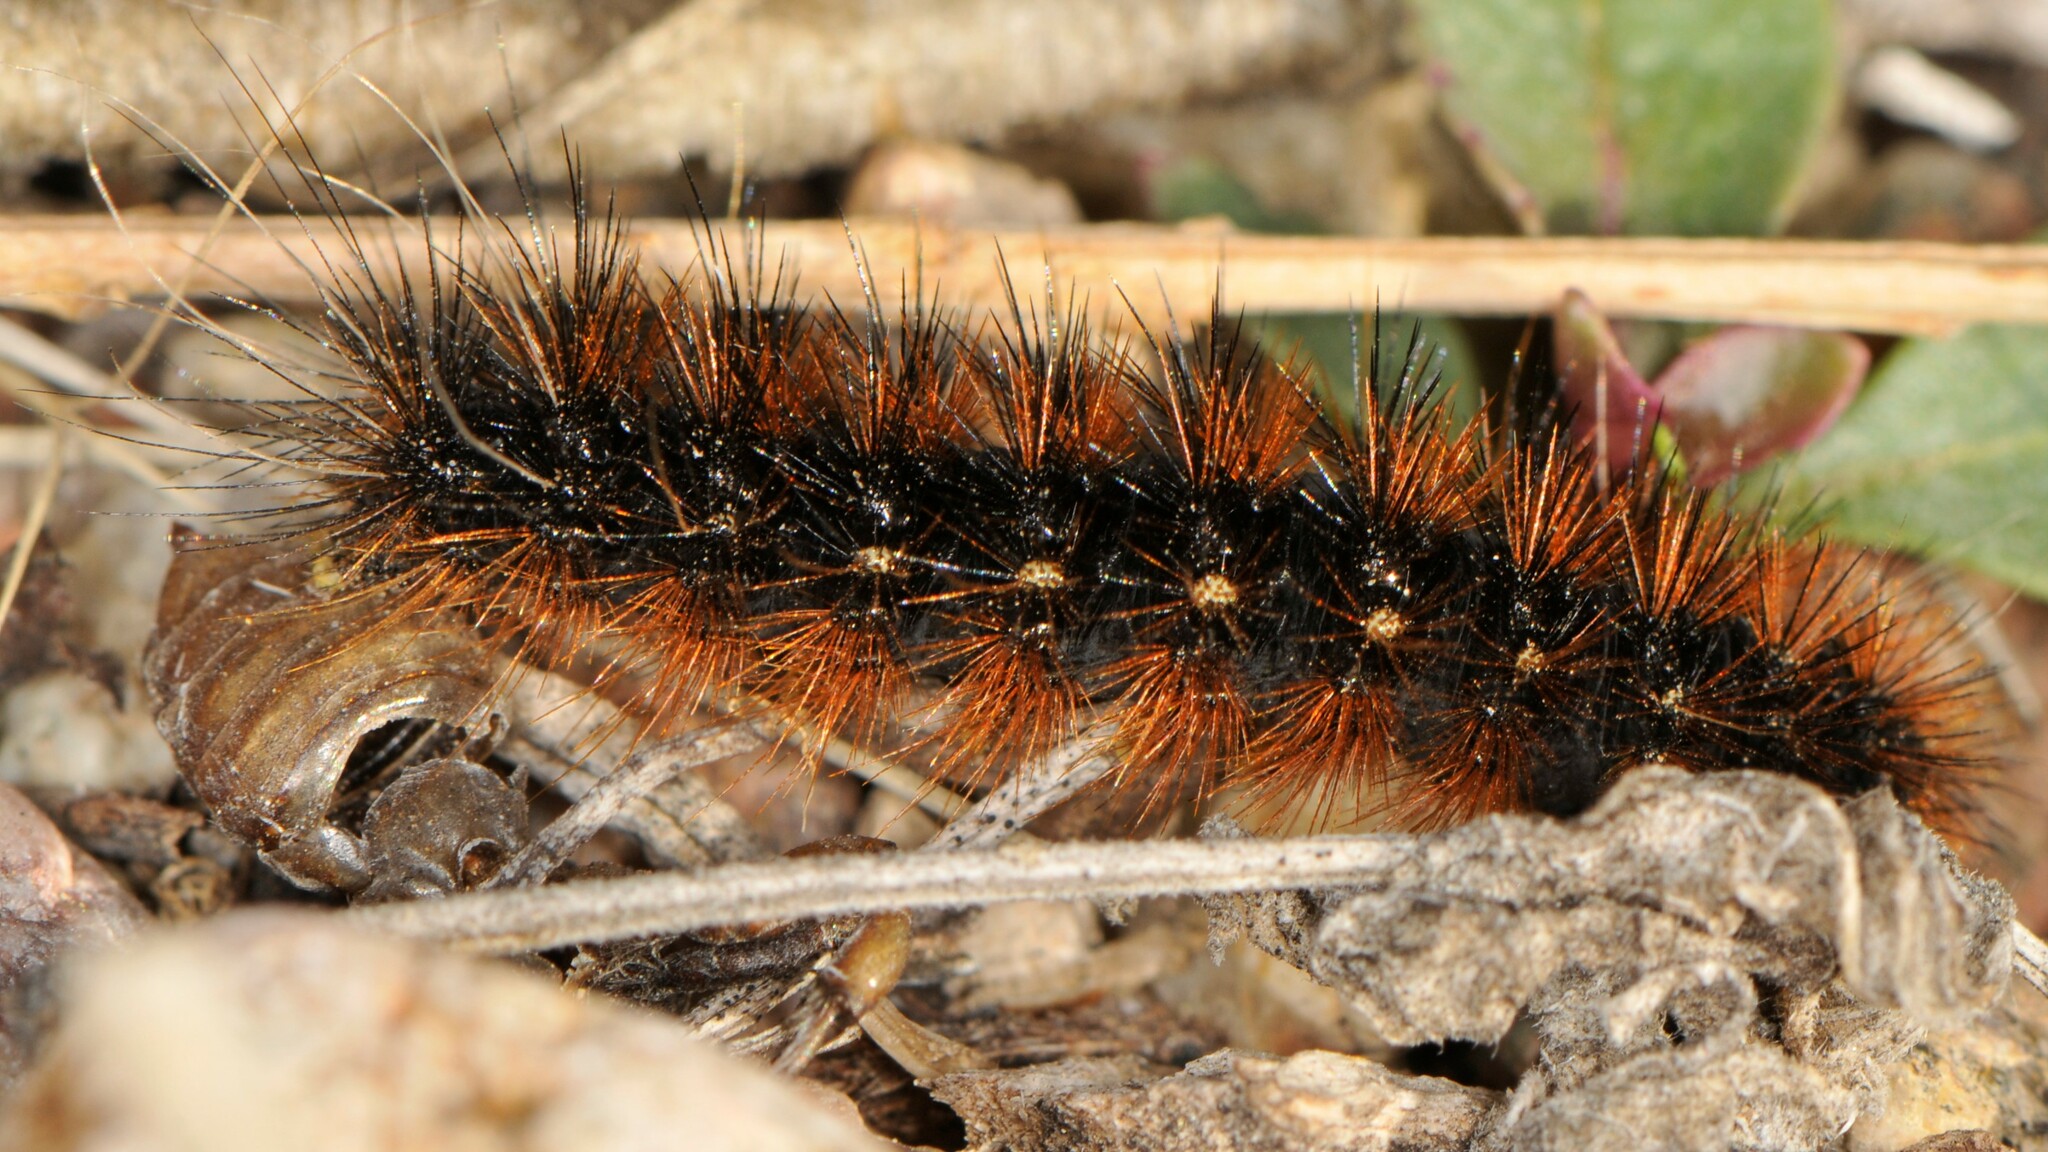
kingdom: Animalia
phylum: Arthropoda
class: Insecta
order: Lepidoptera
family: Erebidae
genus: Apantesis
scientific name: Apantesis
